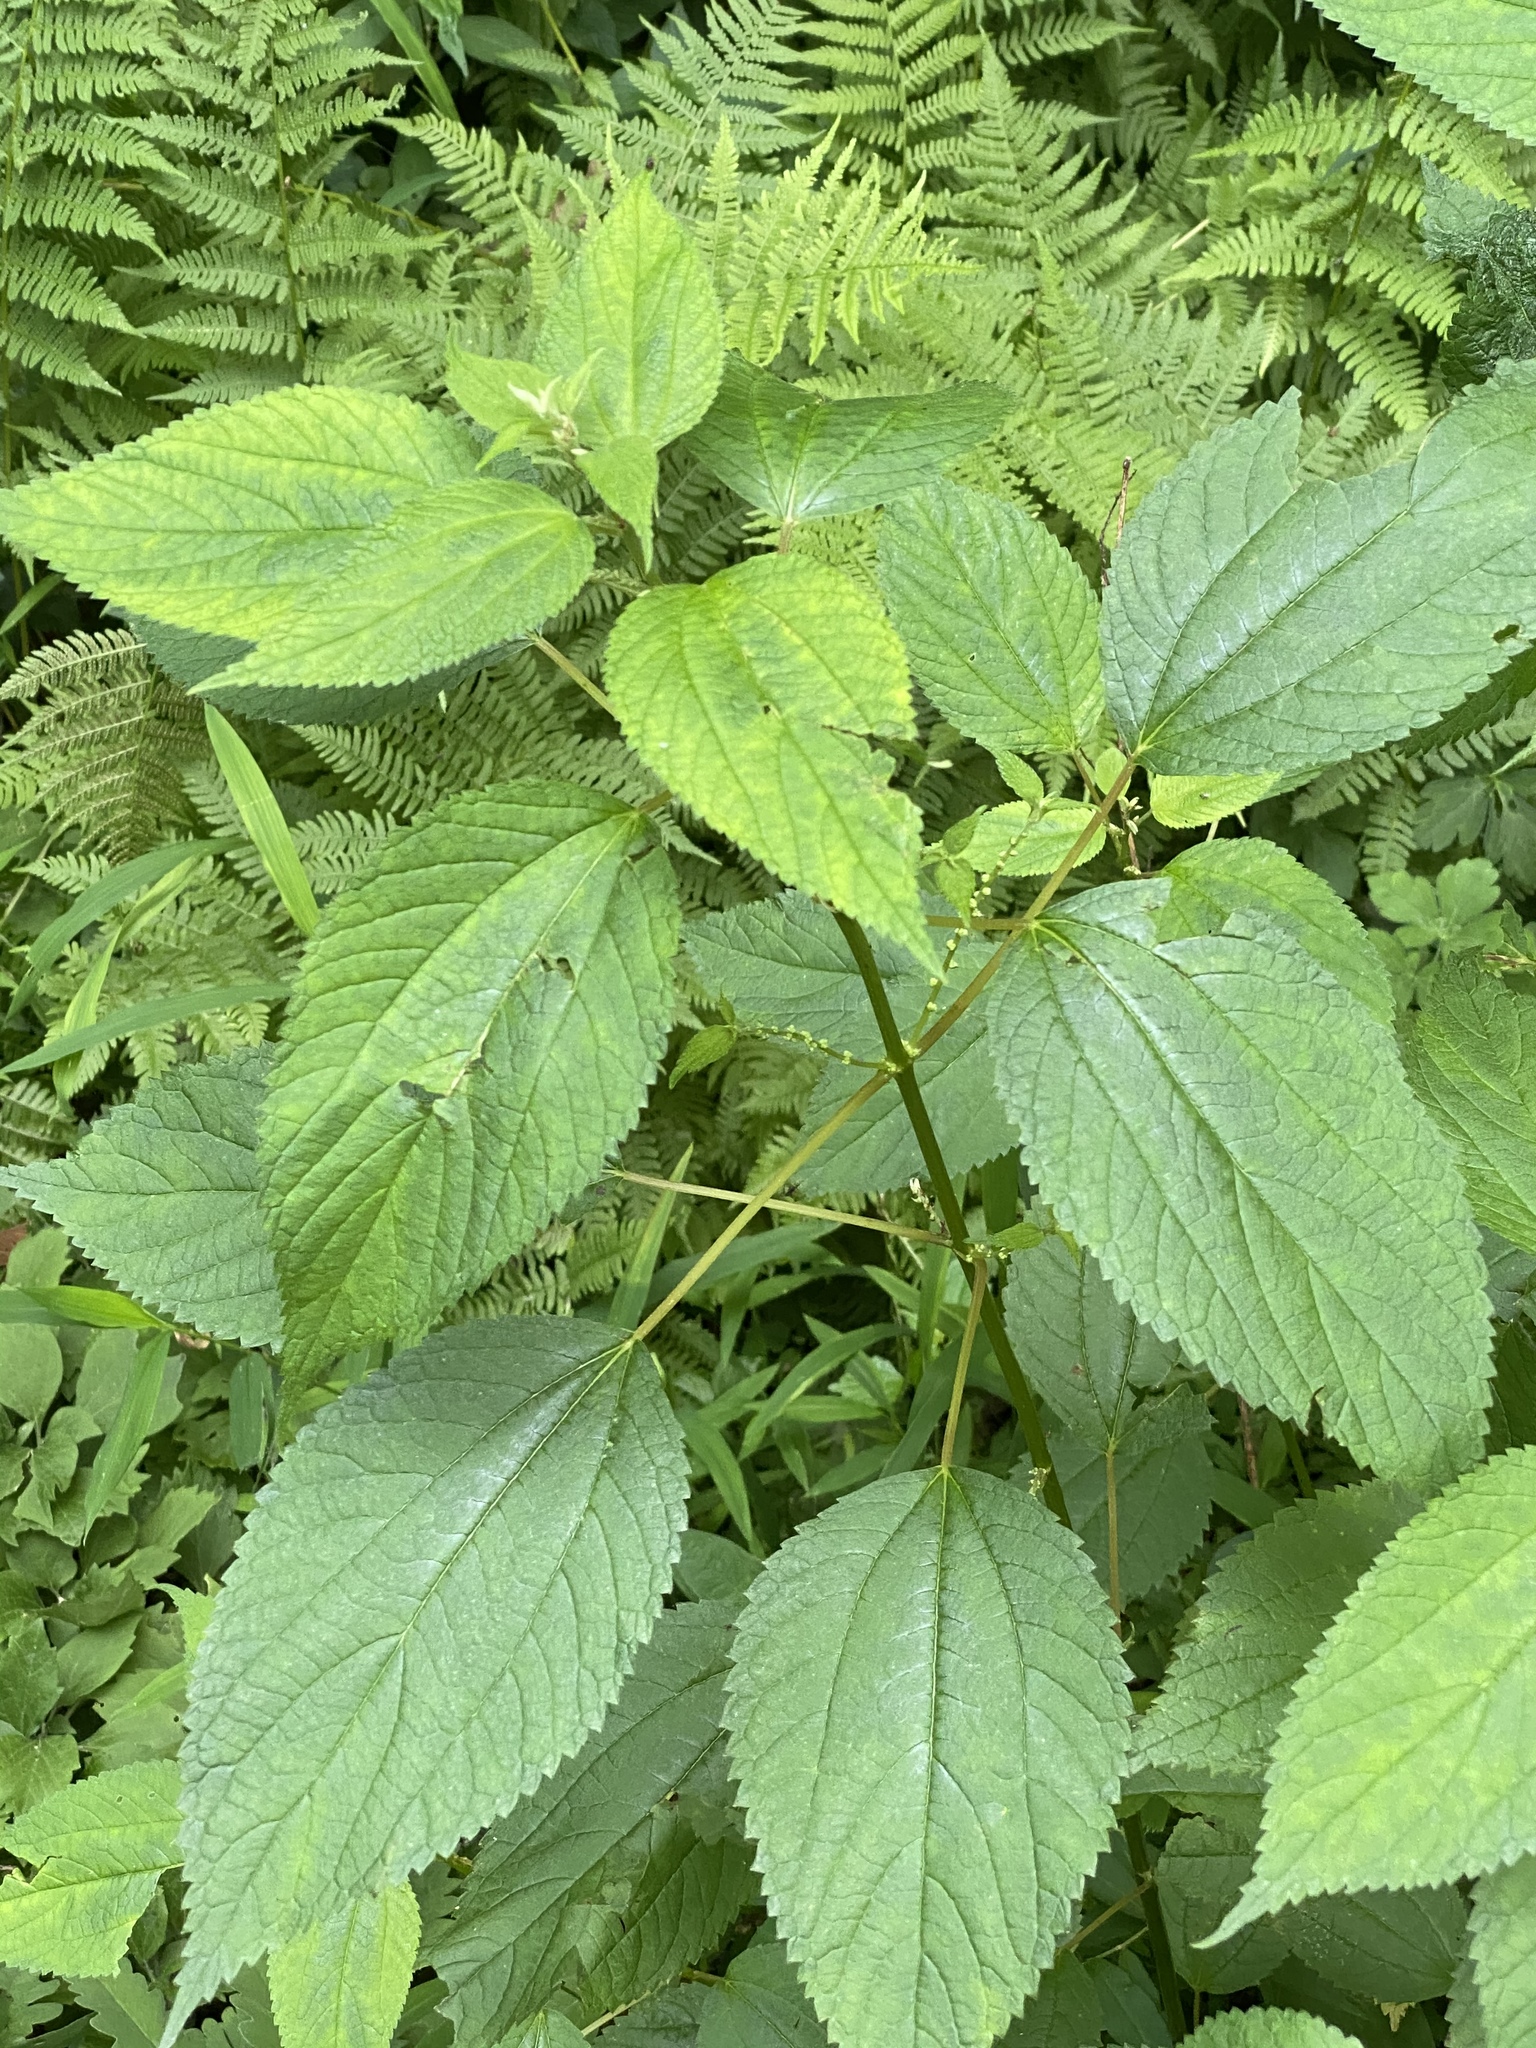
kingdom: Plantae
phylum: Tracheophyta
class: Magnoliopsida
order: Rosales
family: Urticaceae
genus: Boehmeria
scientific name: Boehmeria cylindrica
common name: Bog-hemp
